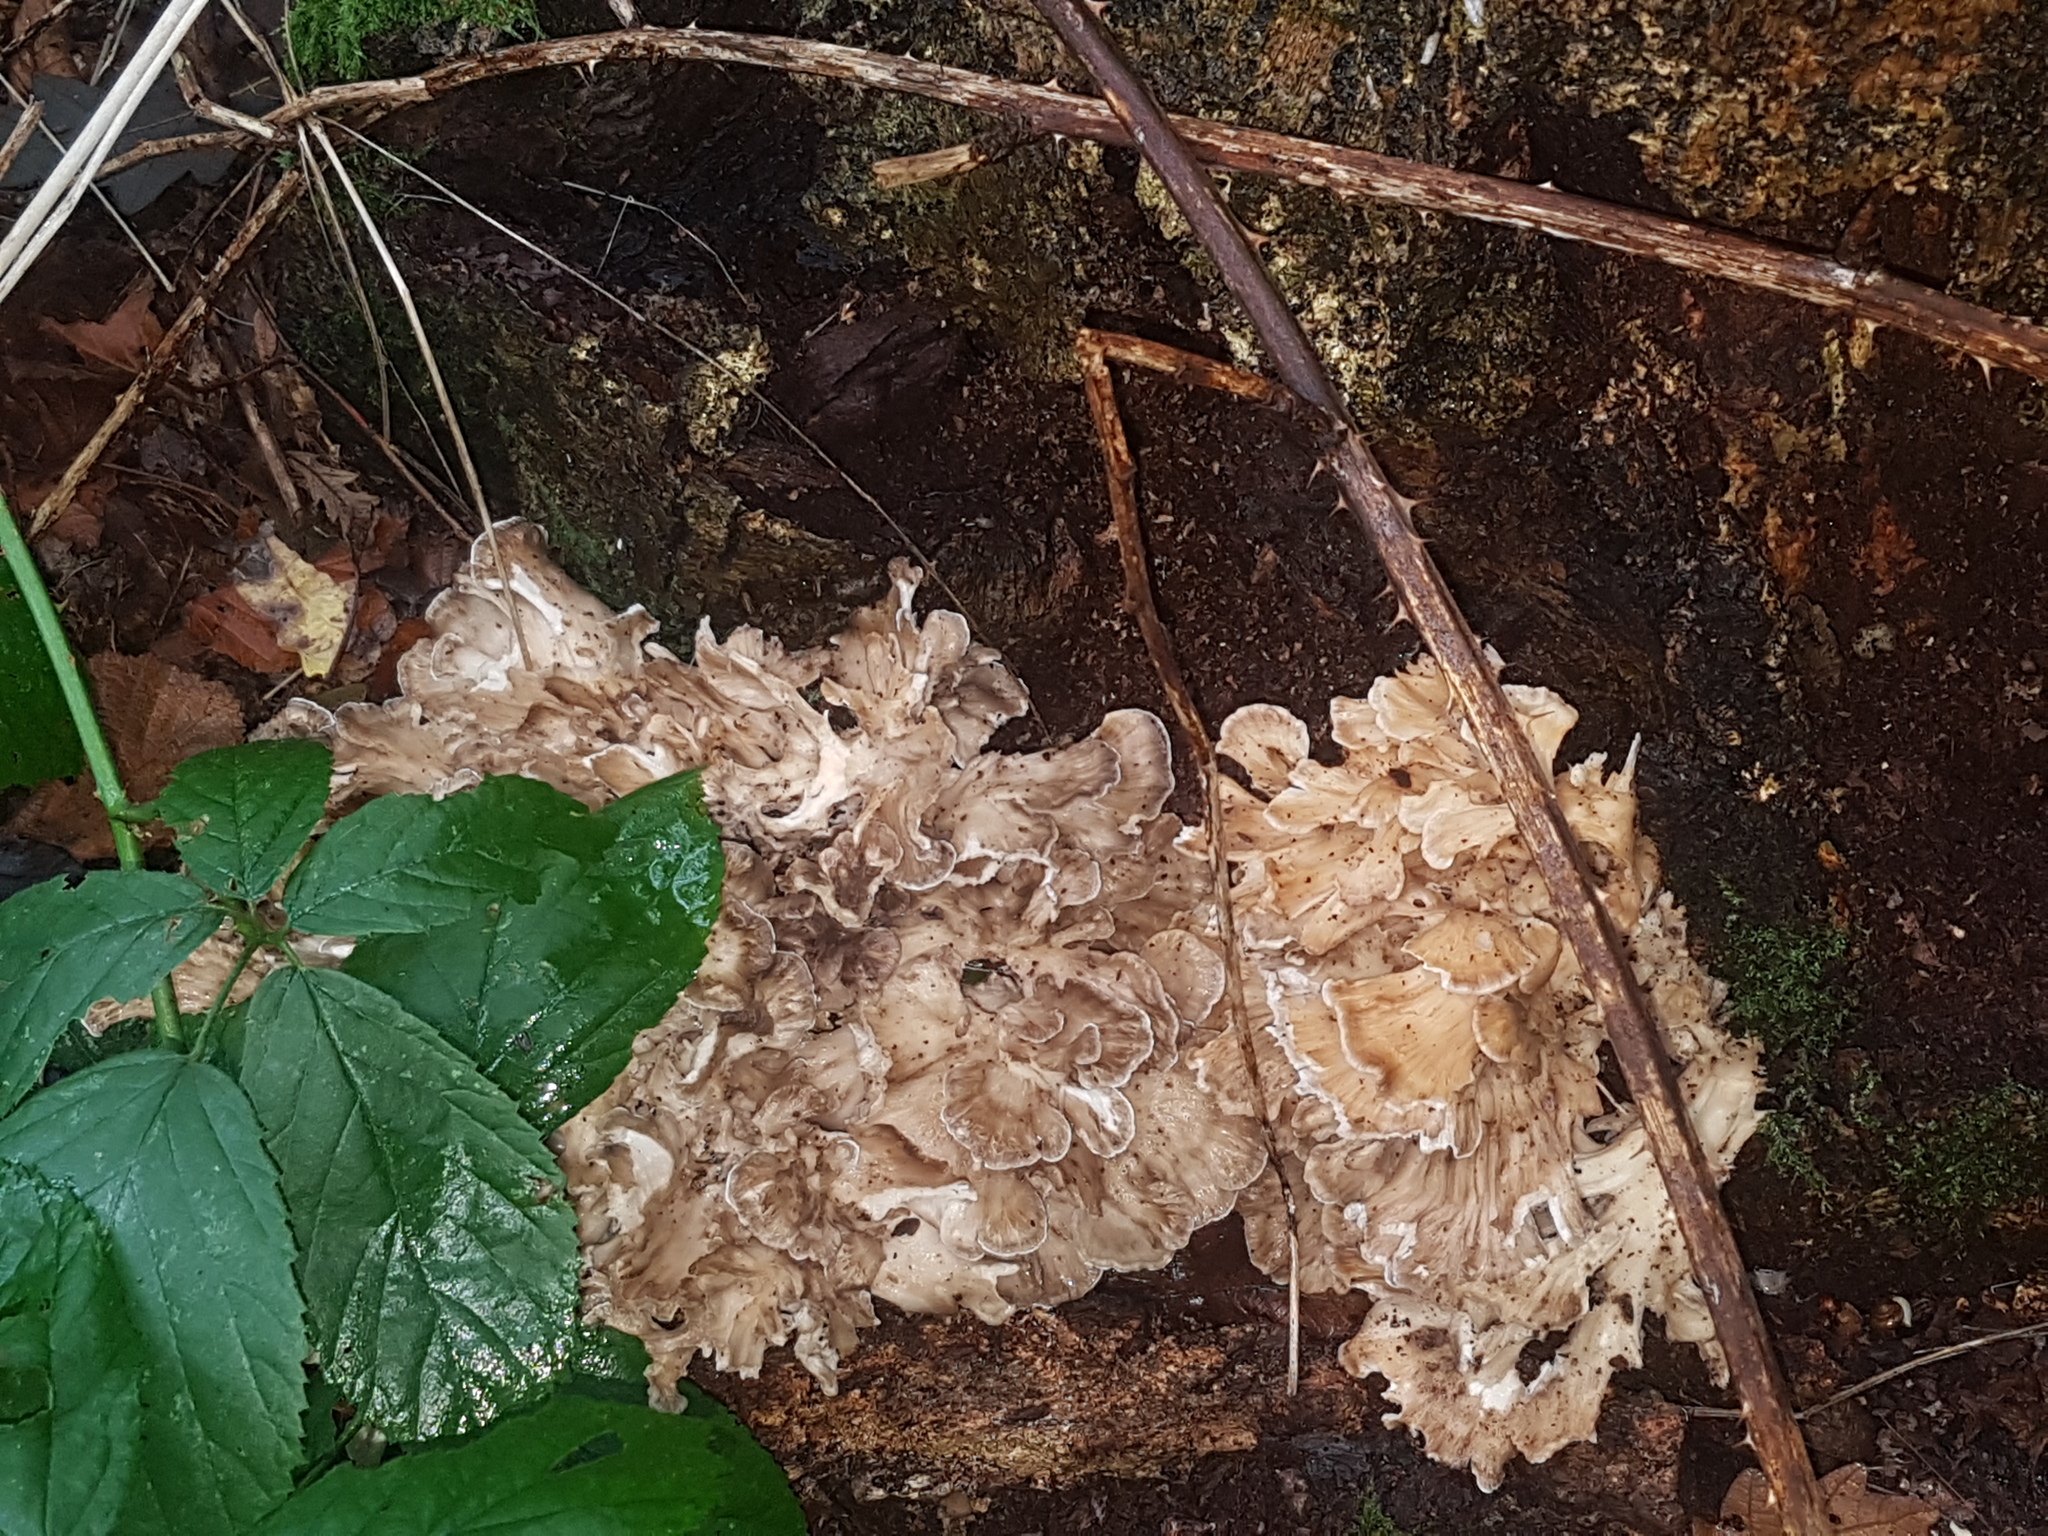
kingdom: Fungi
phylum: Basidiomycota
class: Agaricomycetes
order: Polyporales
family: Grifolaceae
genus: Grifola
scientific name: Grifola frondosa
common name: Hen of the woods
